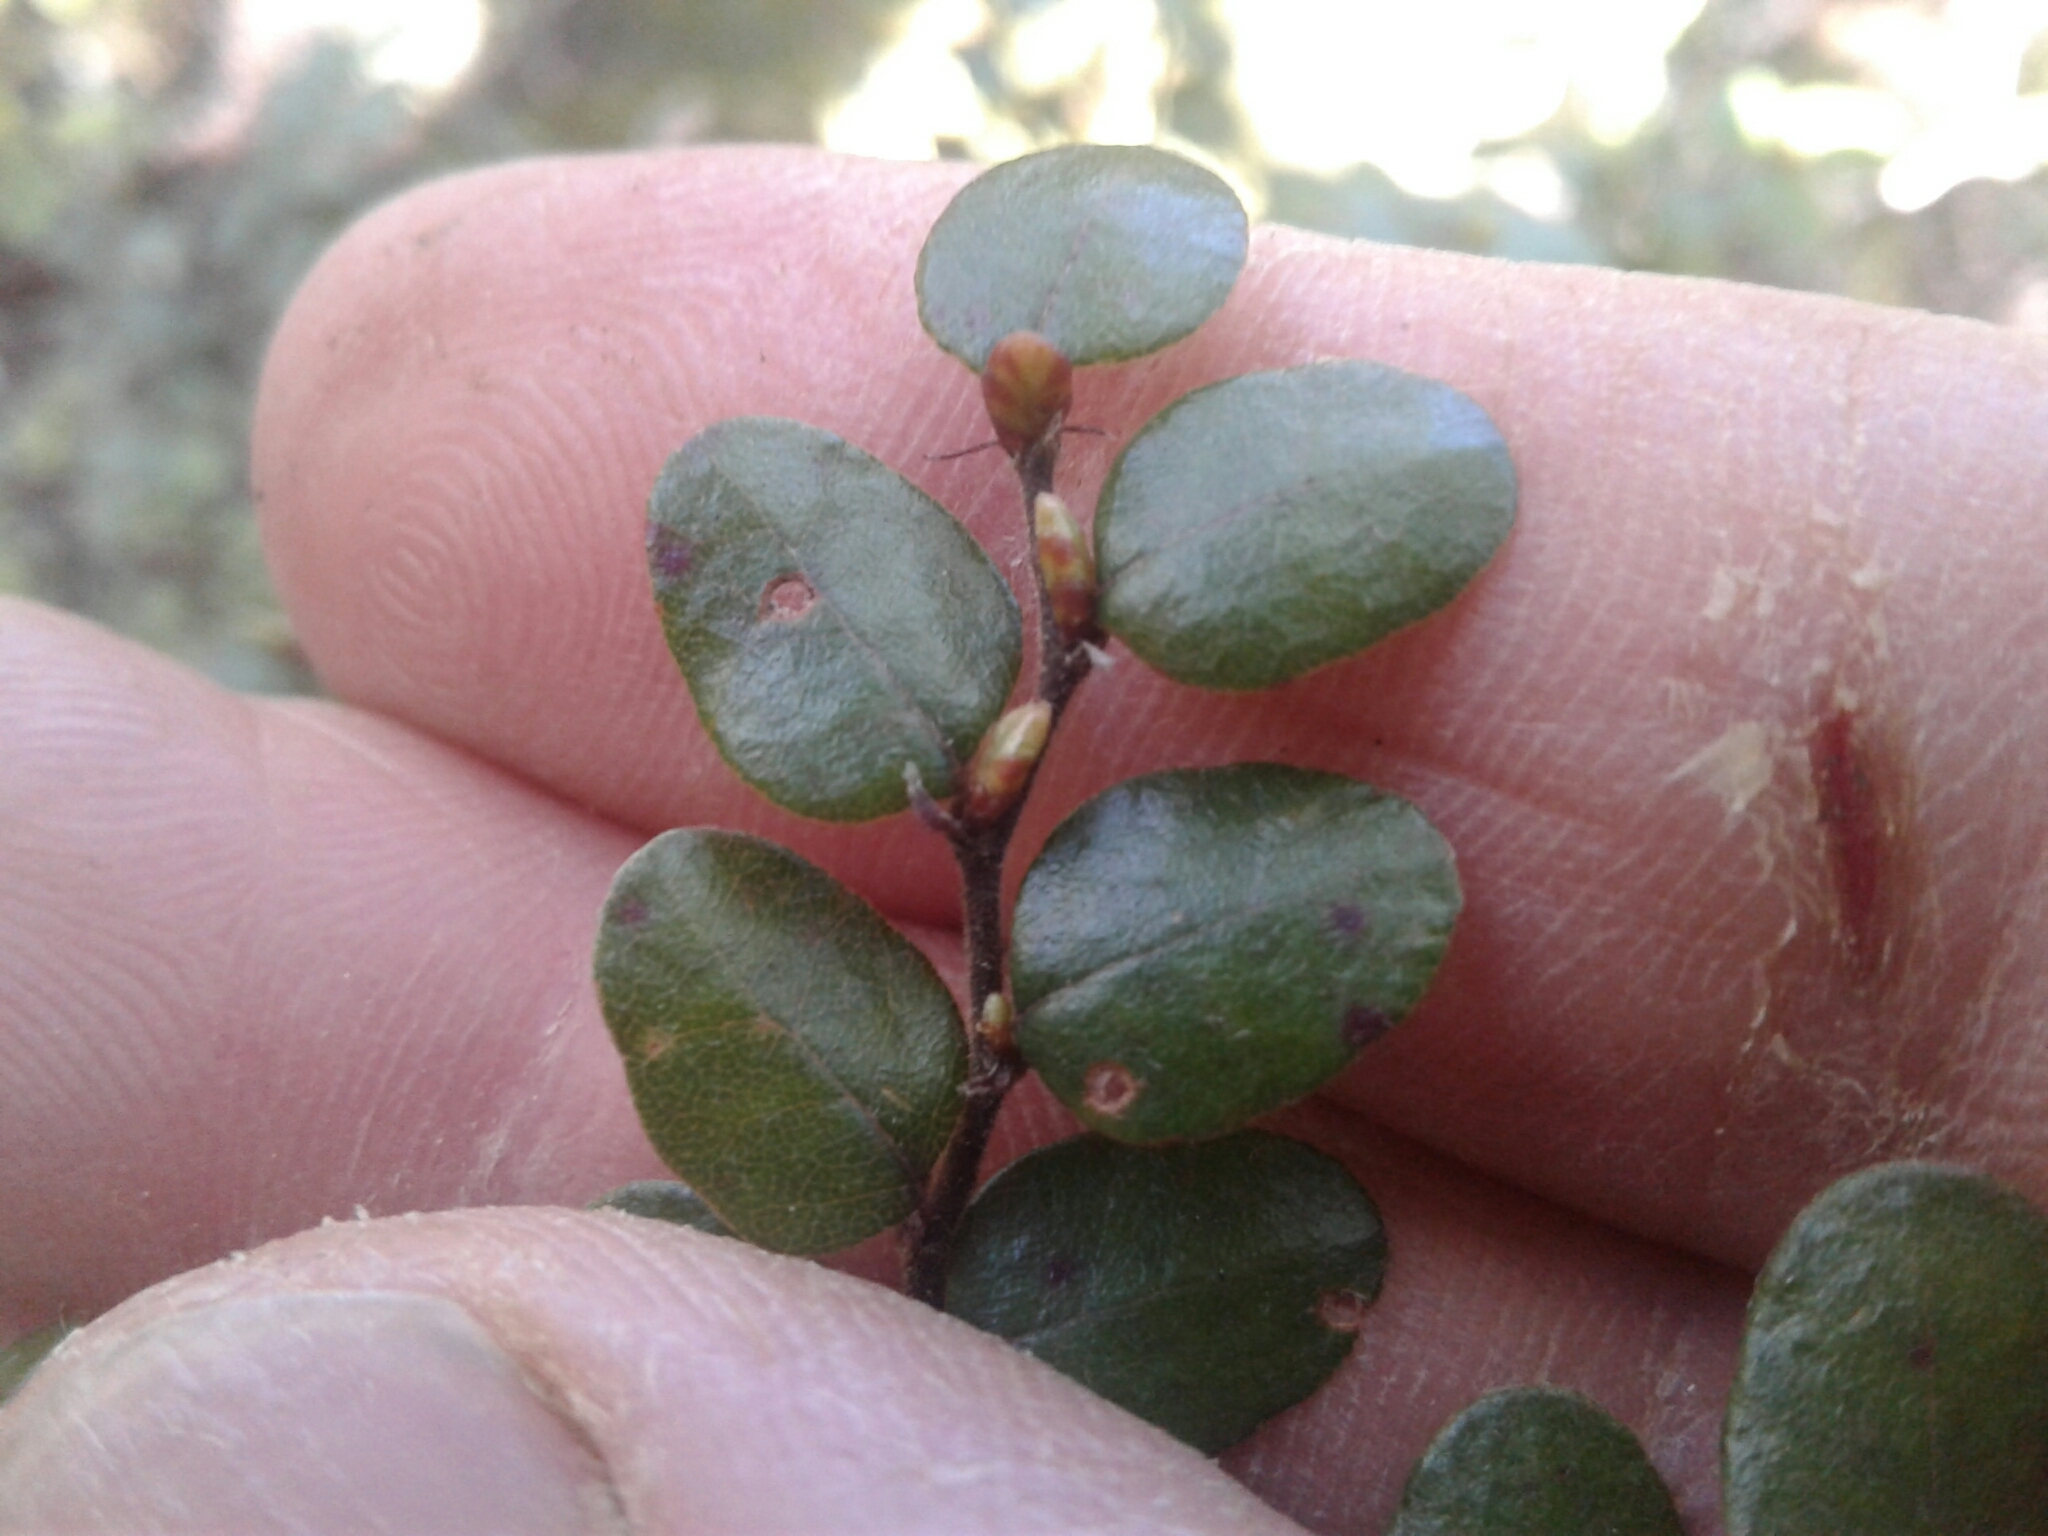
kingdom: Plantae
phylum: Tracheophyta
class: Magnoliopsida
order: Fagales
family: Nothofagaceae
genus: Nothofagus
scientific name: Nothofagus solandri
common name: Black beech
